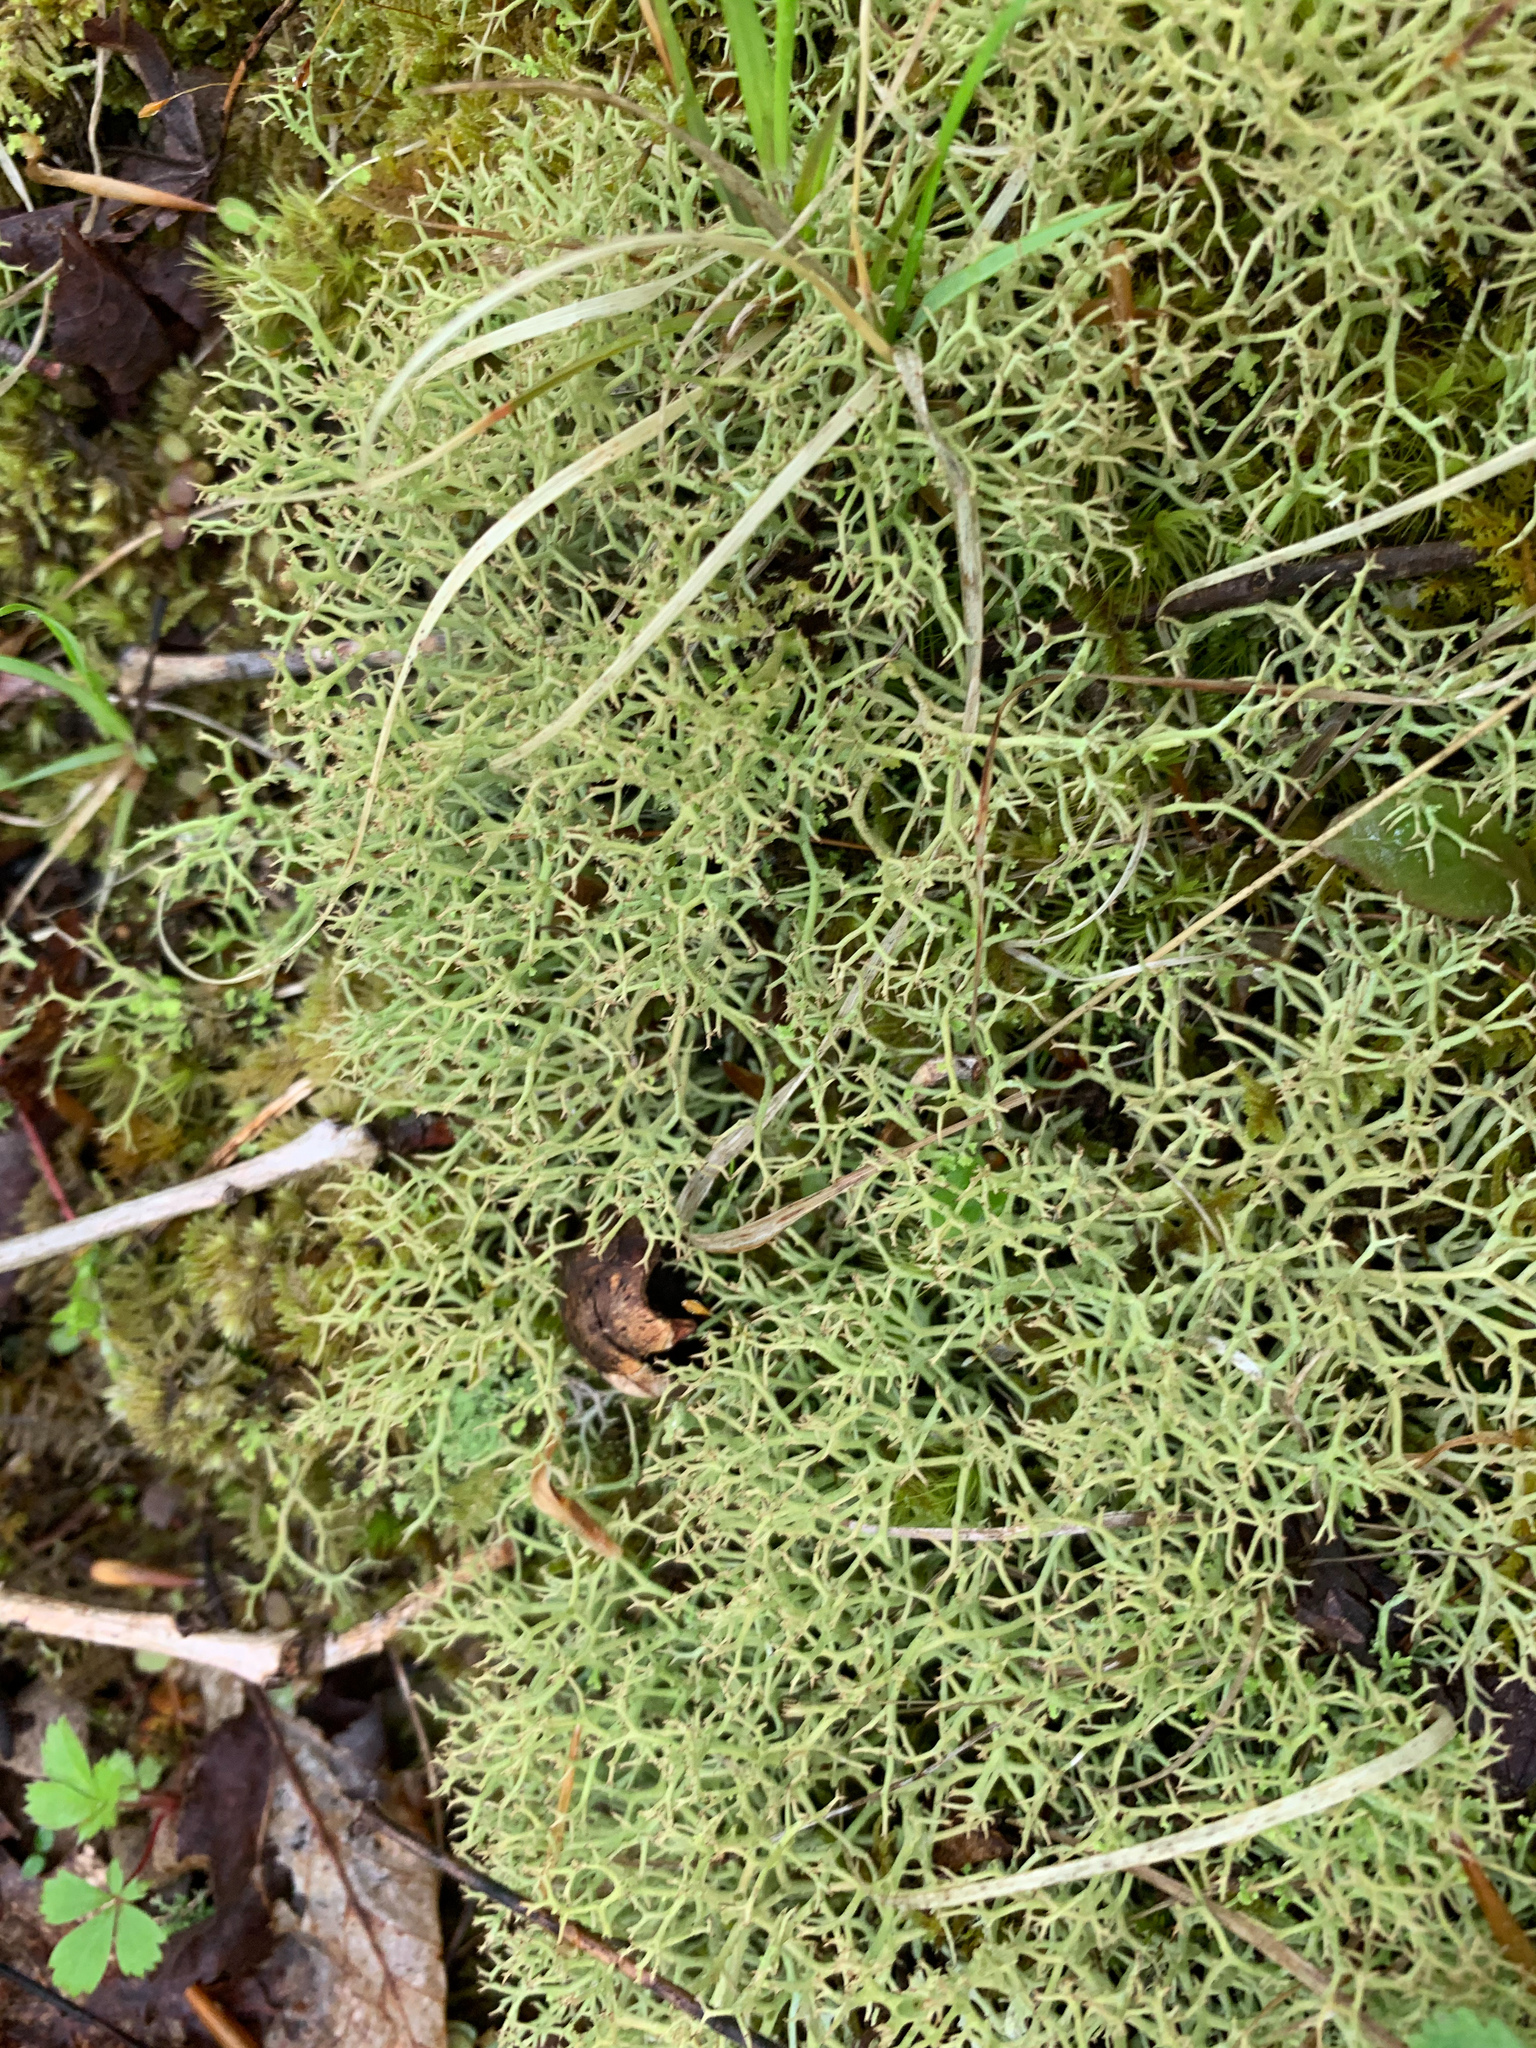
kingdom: Fungi
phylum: Ascomycota
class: Lecanoromycetes
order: Lecanorales
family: Cladoniaceae
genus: Cladonia
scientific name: Cladonia furcata
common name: Many-forked cladonia
